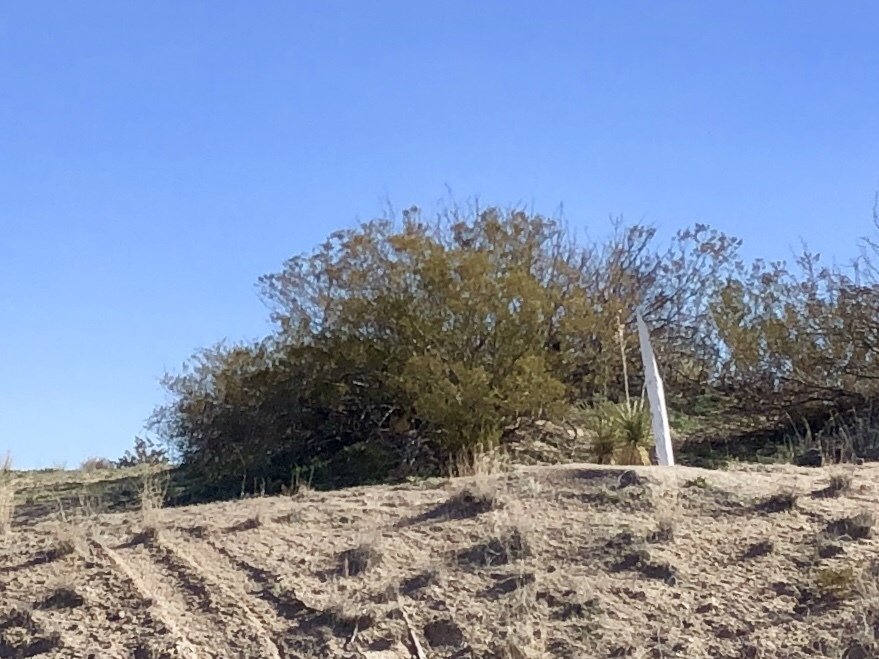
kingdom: Plantae
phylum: Tracheophyta
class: Magnoliopsida
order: Zygophyllales
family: Zygophyllaceae
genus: Larrea
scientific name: Larrea tridentata
